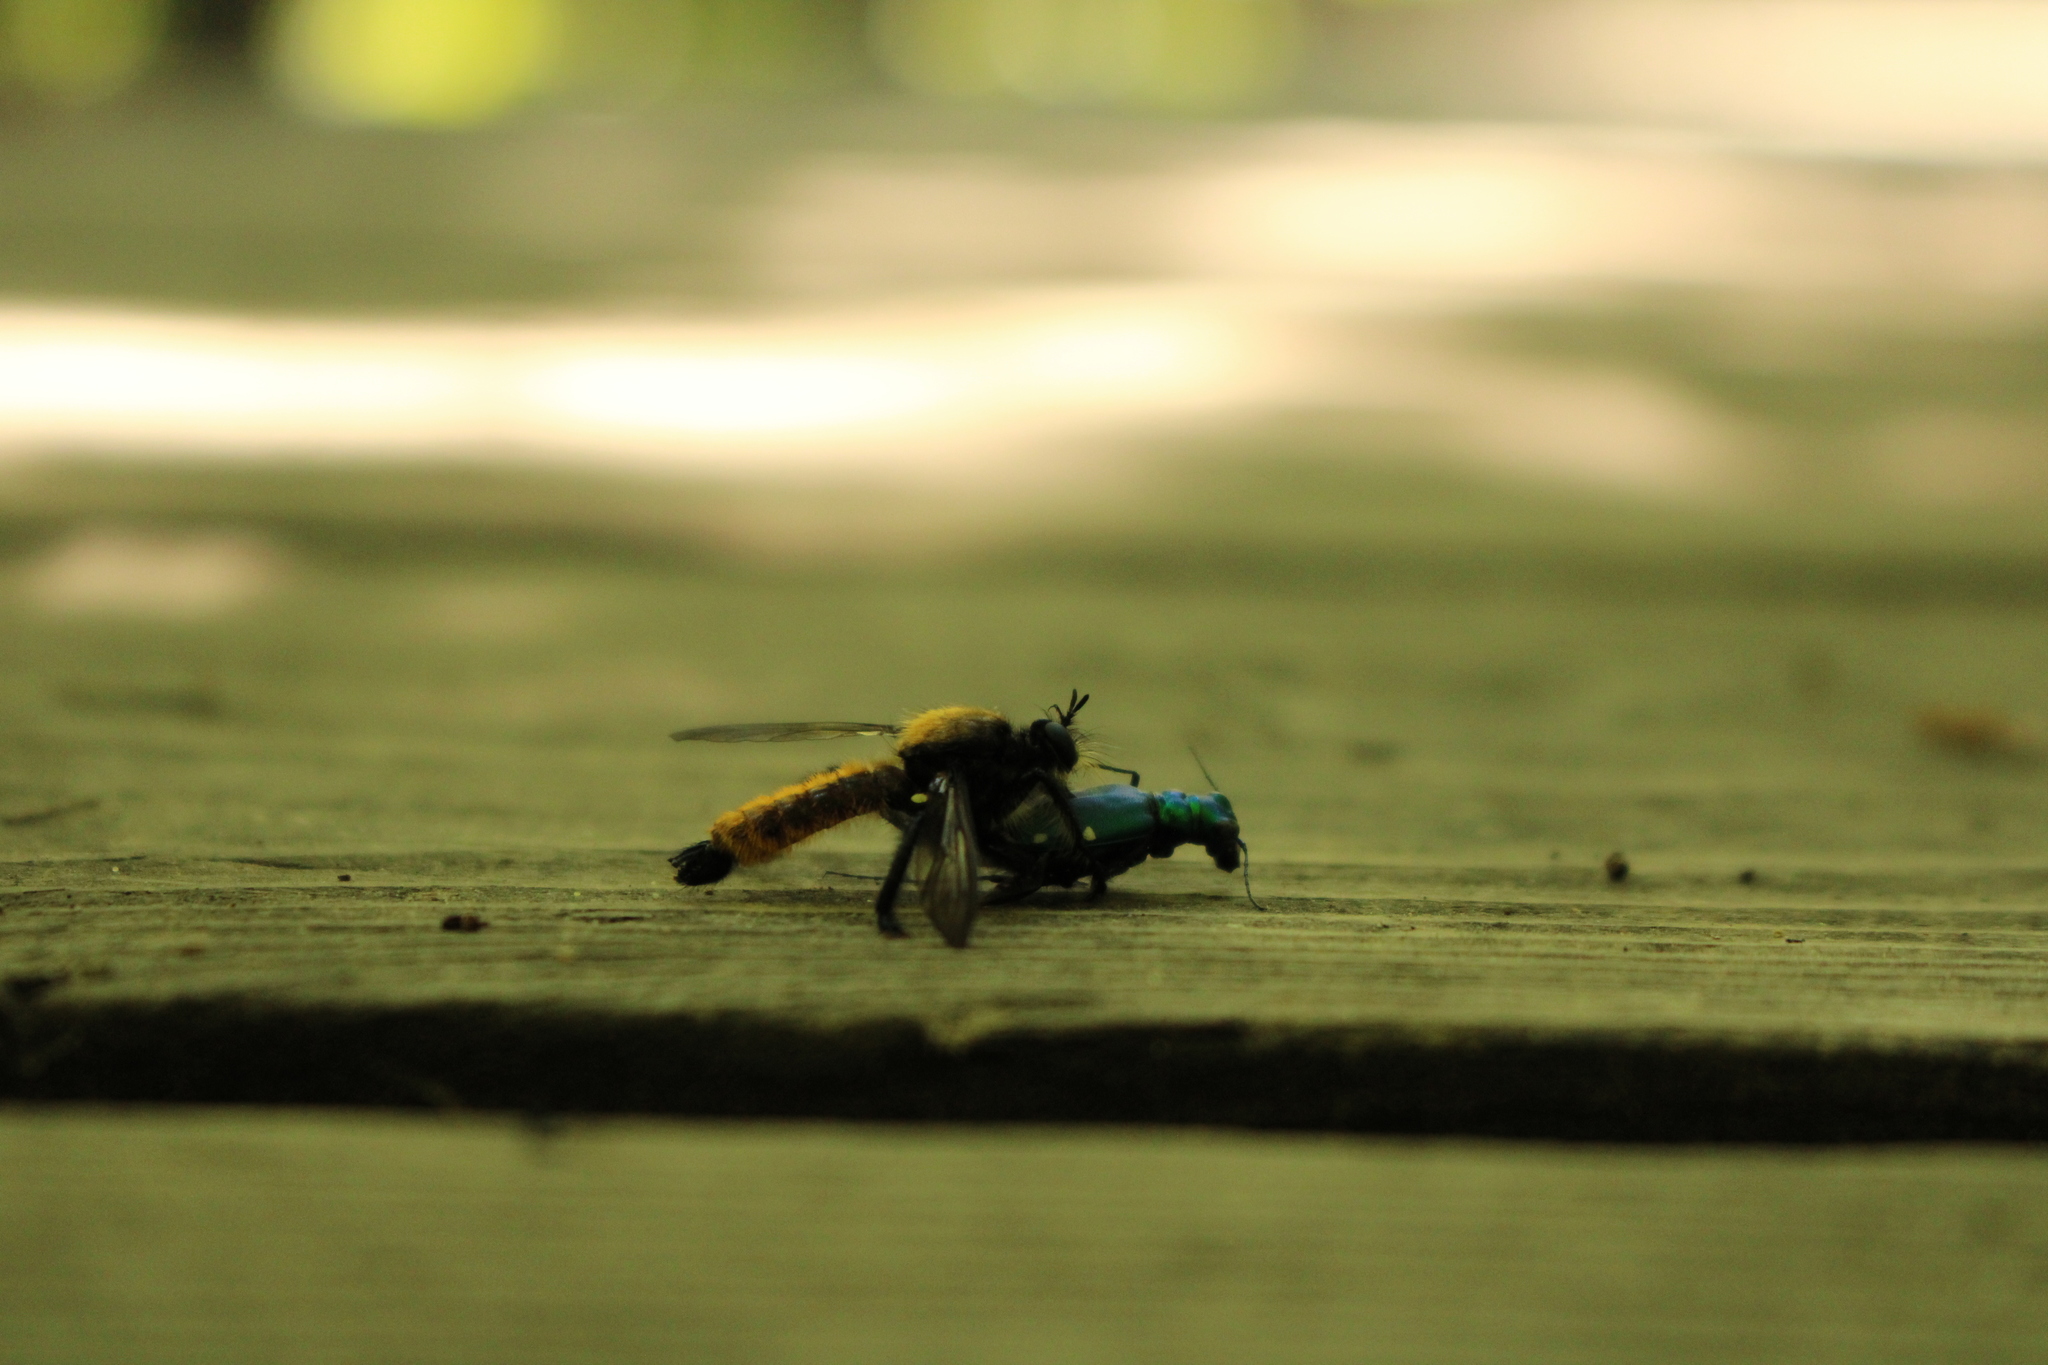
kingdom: Animalia
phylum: Arthropoda
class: Insecta
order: Coleoptera
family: Carabidae
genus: Cicindela
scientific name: Cicindela sexguttata
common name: Six-spotted tiger beetle
